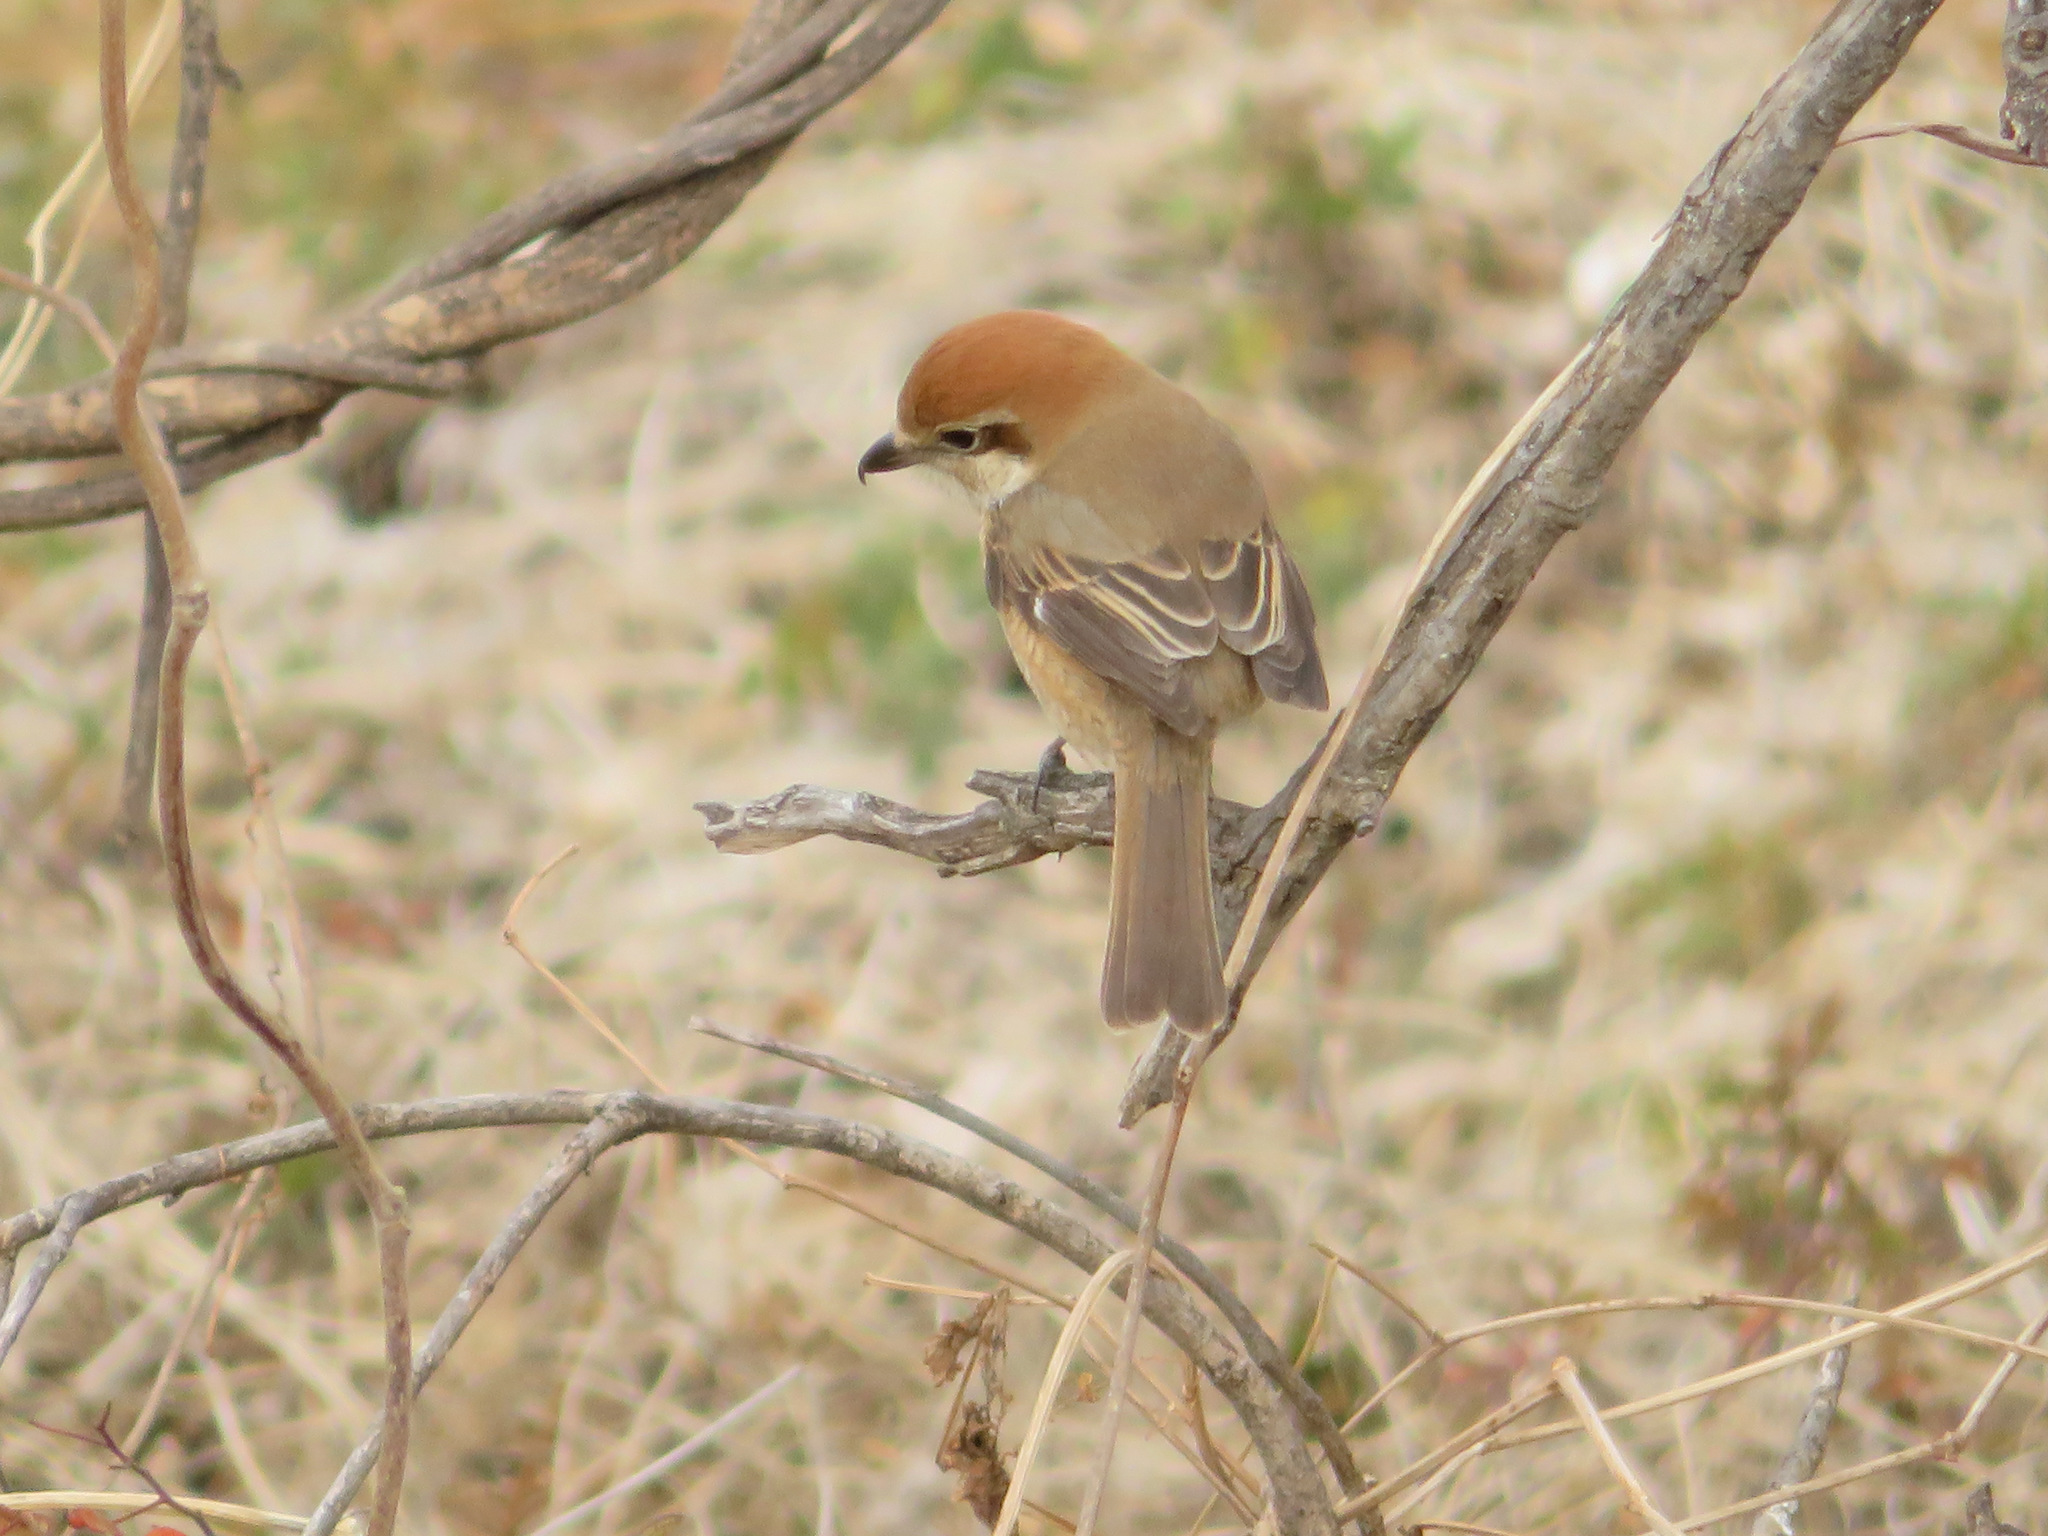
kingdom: Animalia
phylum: Chordata
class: Aves
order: Passeriformes
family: Laniidae
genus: Lanius
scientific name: Lanius bucephalus
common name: Bull-headed shrike
